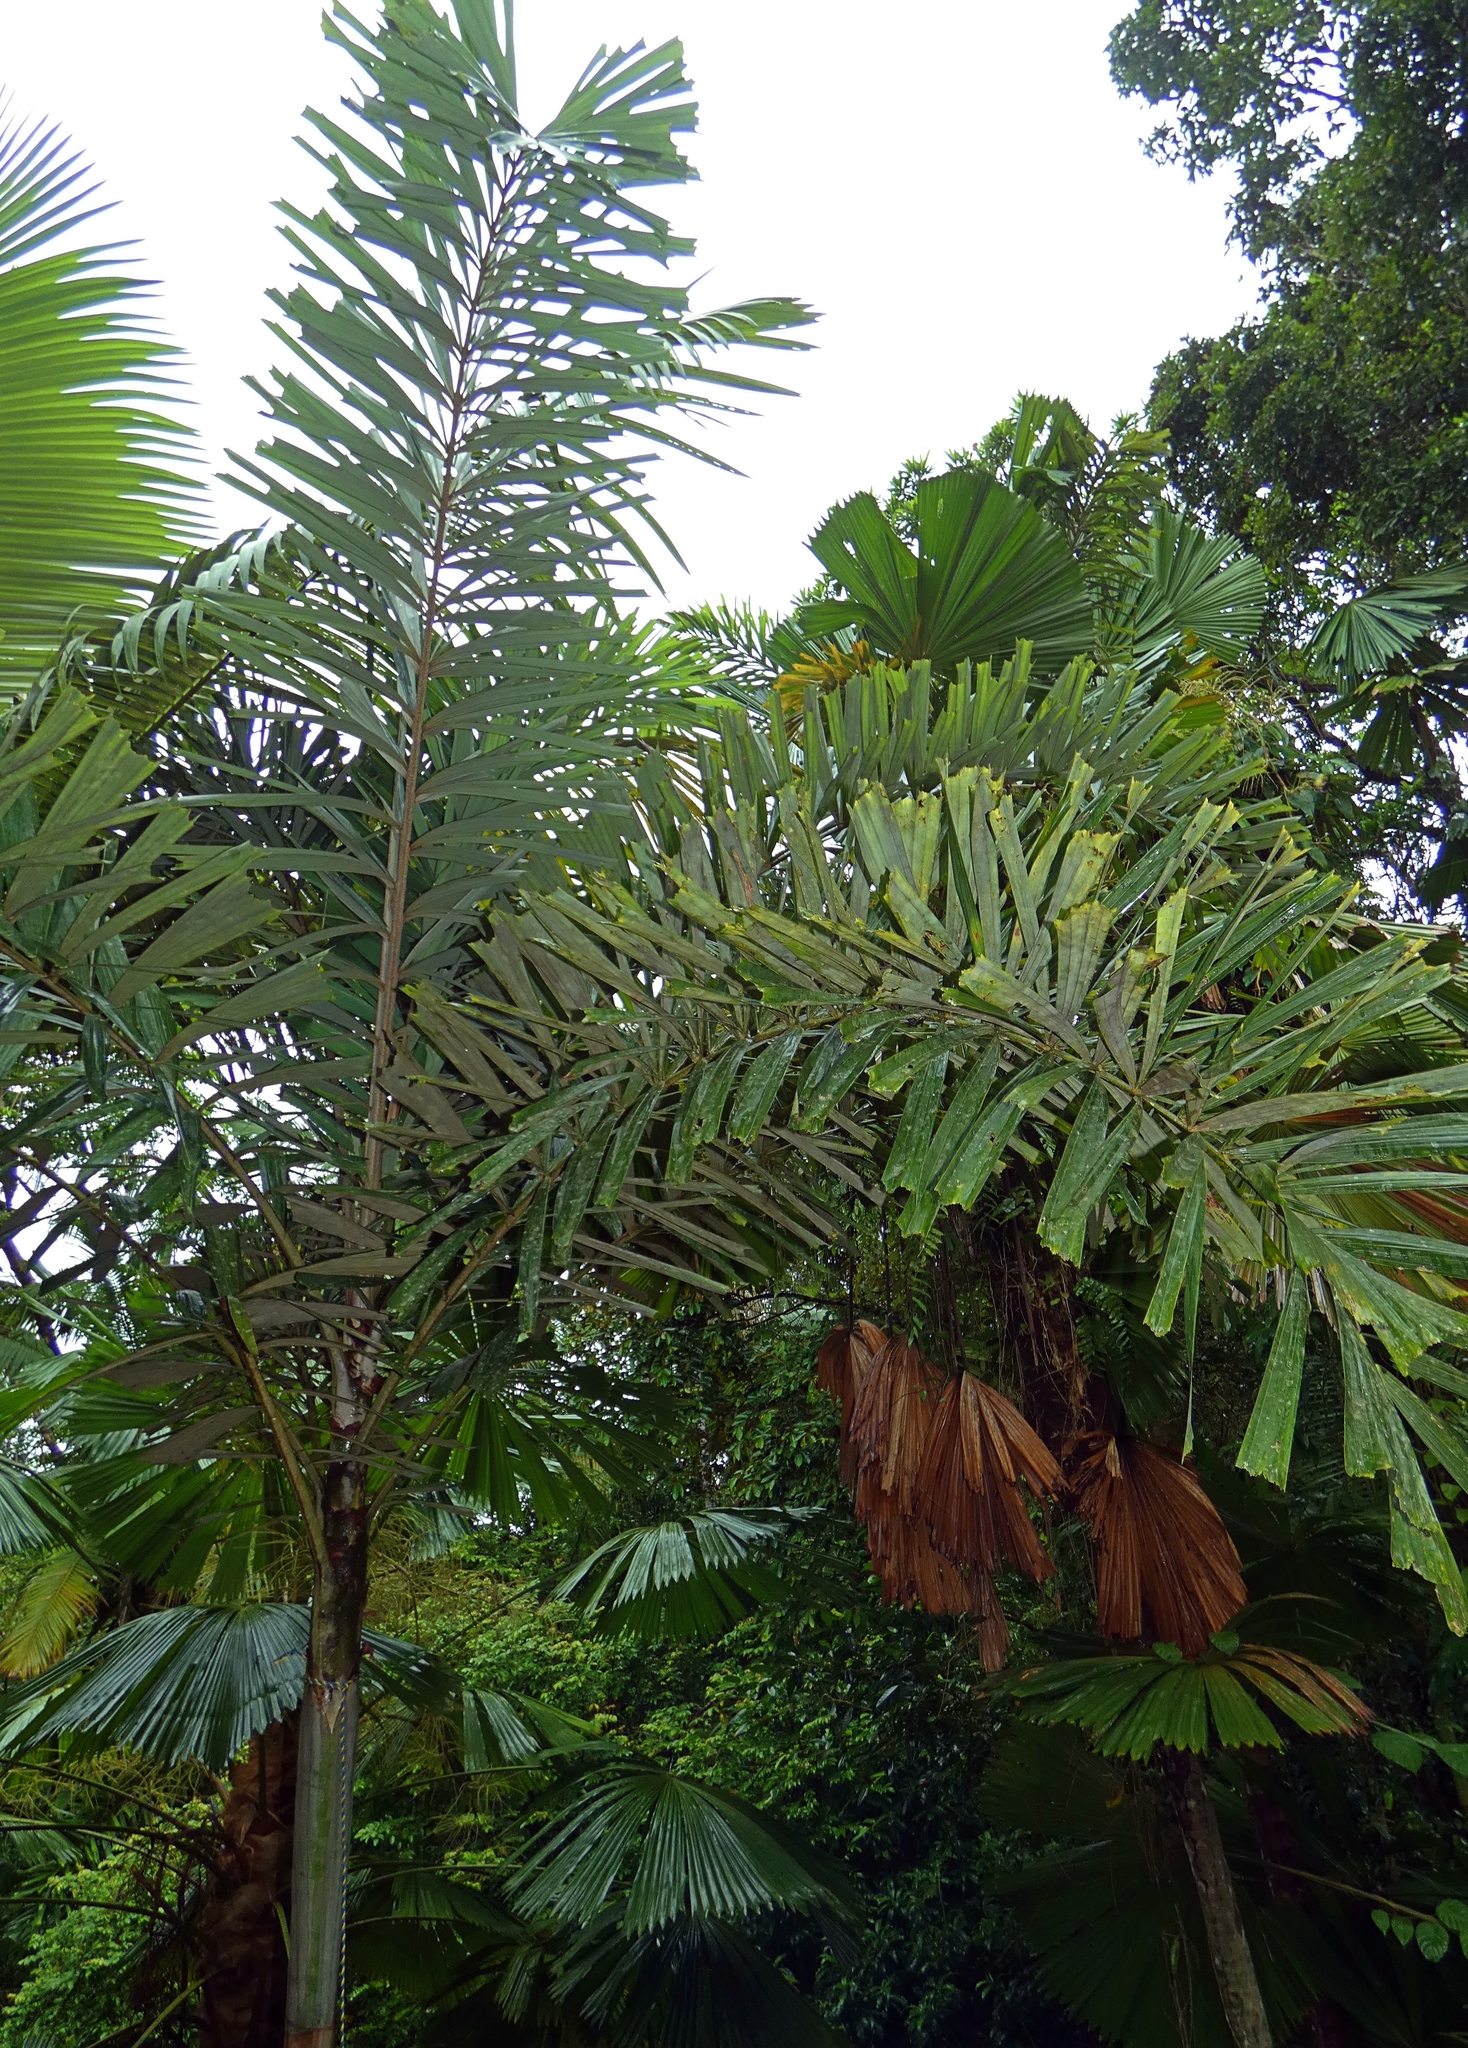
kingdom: Plantae
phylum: Tracheophyta
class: Liliopsida
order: Arecales
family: Arecaceae
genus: Normanbya
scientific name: Normanbya normanbyi
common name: Black palm
